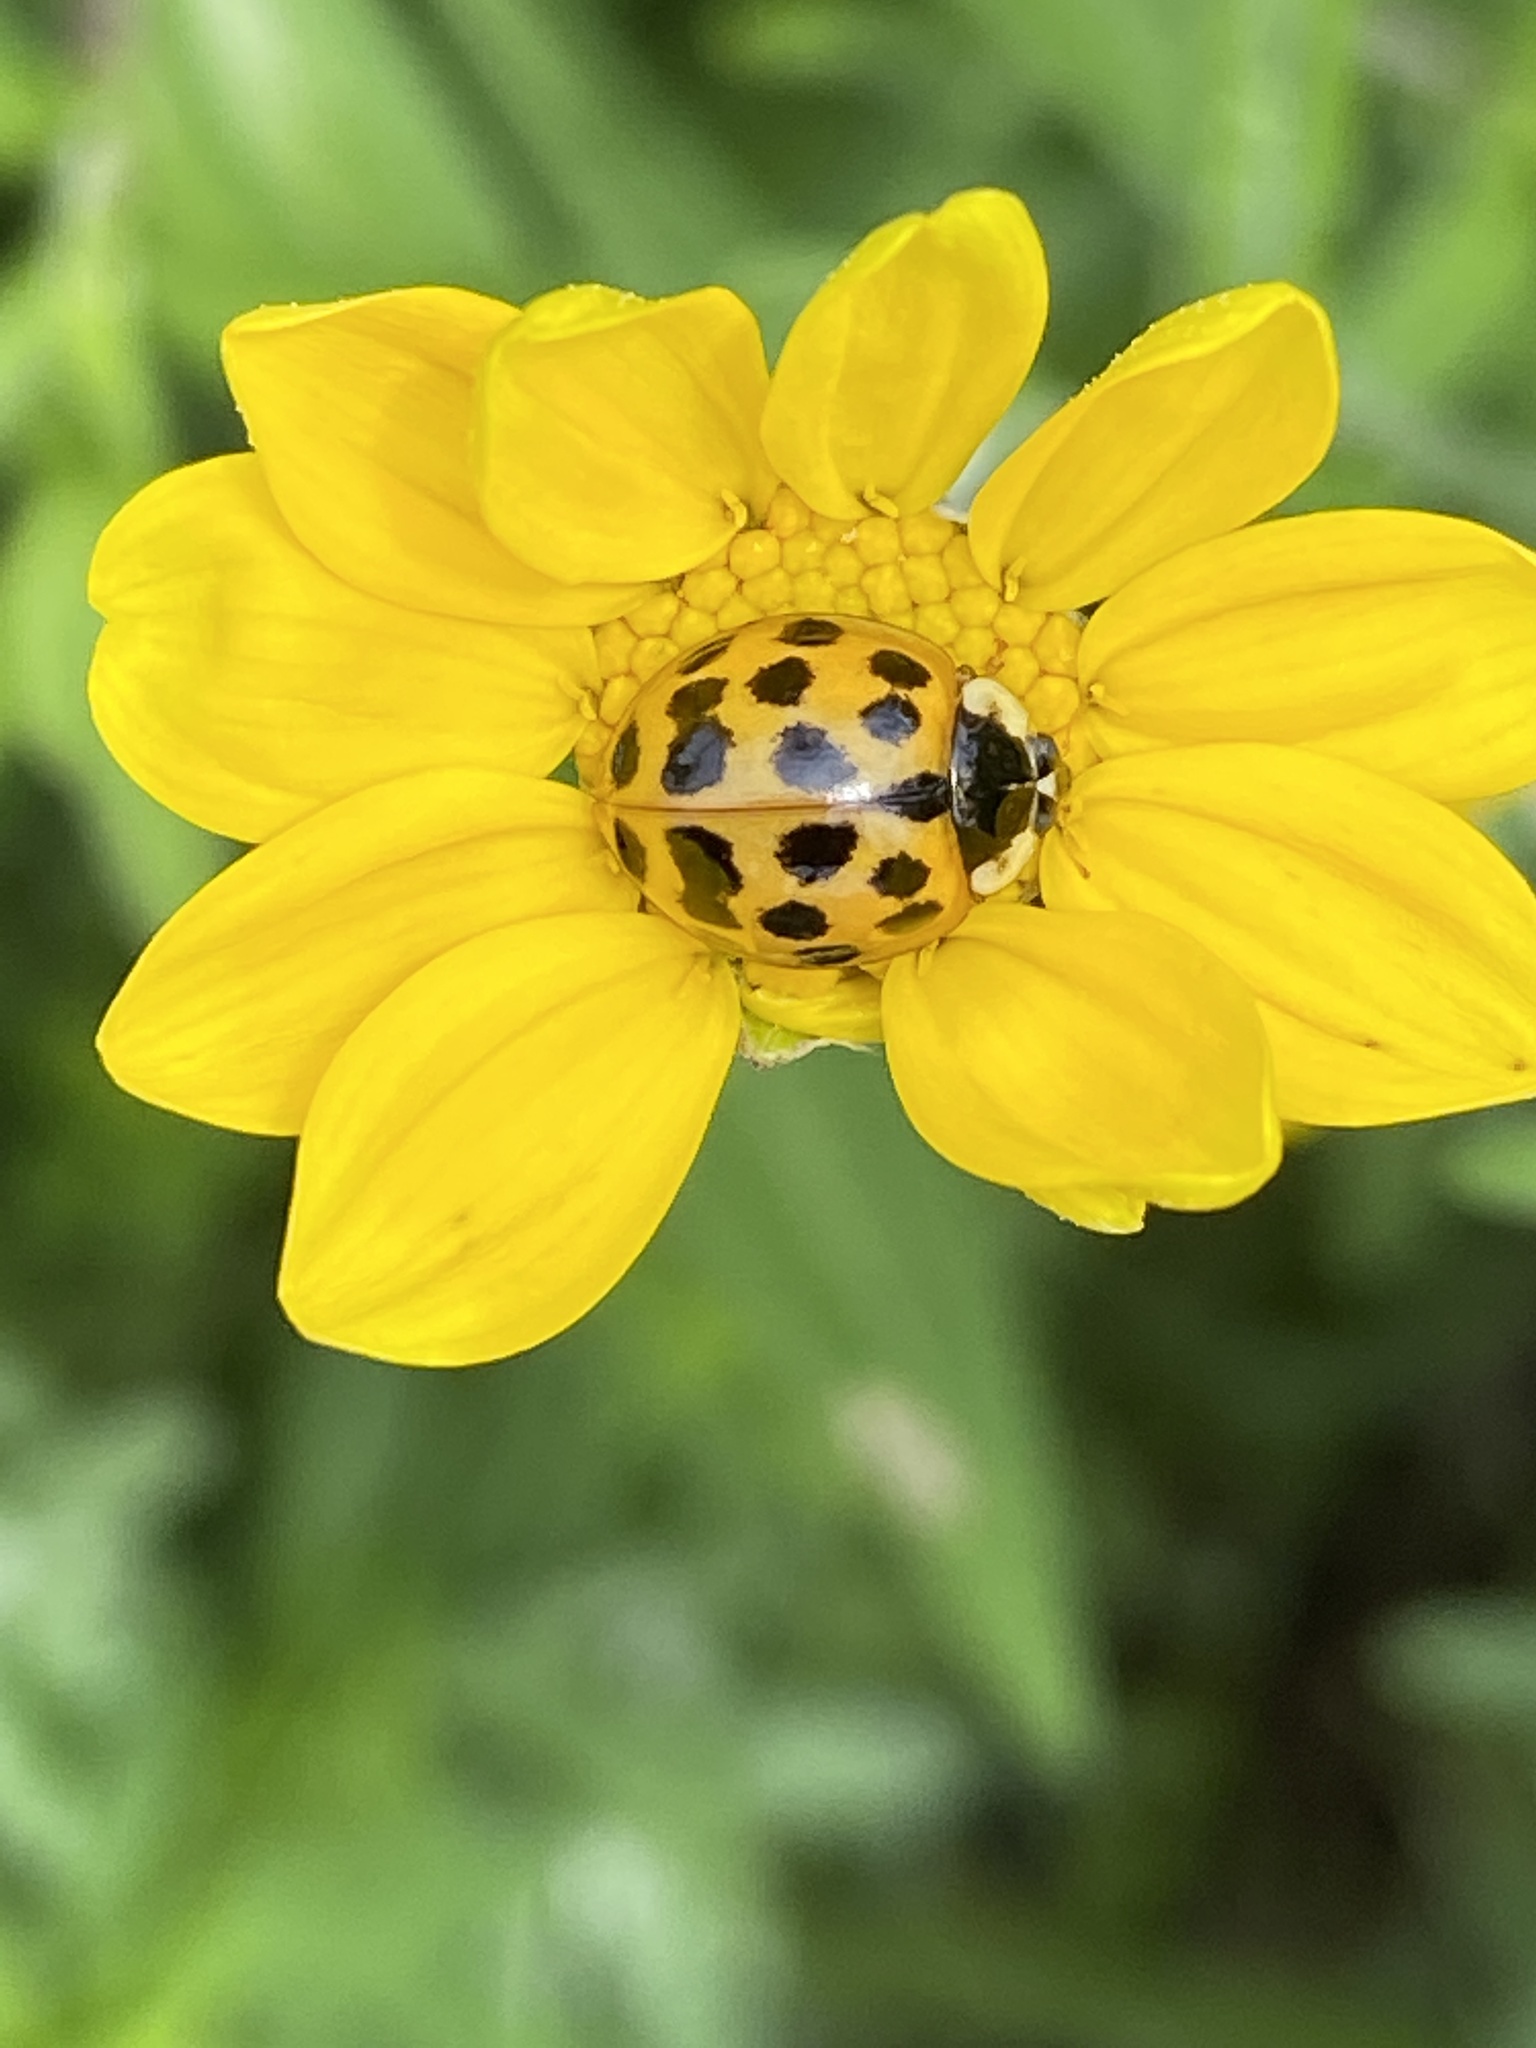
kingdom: Animalia
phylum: Arthropoda
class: Insecta
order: Coleoptera
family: Coccinellidae
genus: Harmonia
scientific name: Harmonia axyridis
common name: Harlequin ladybird
